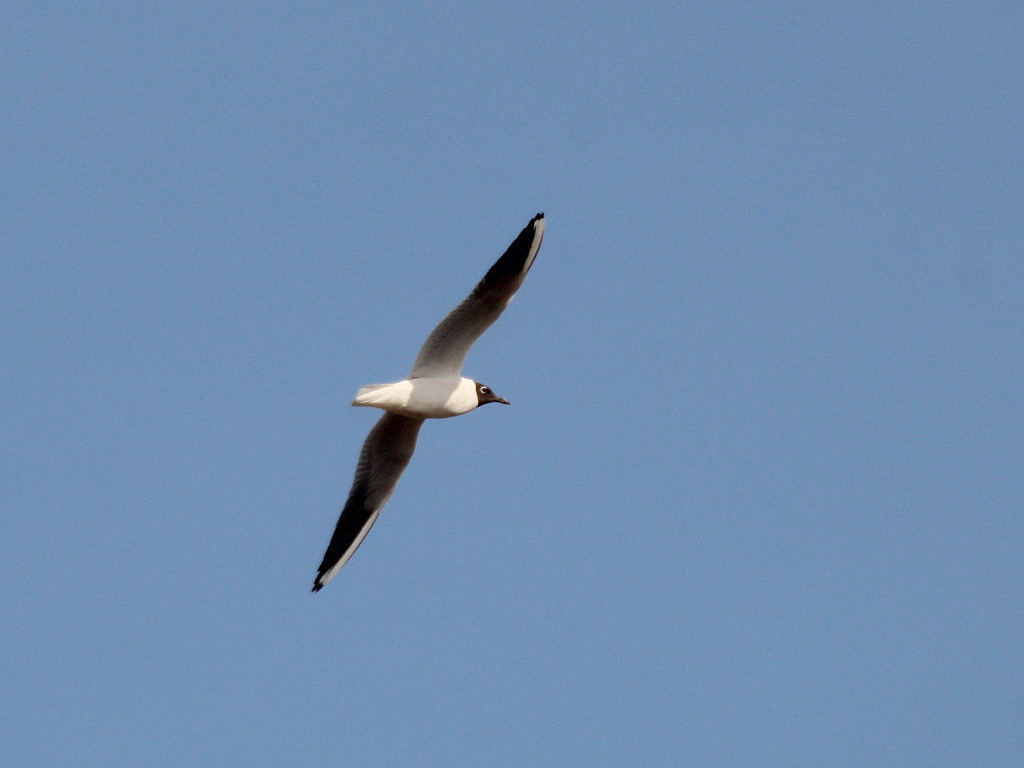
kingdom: Animalia
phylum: Chordata
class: Aves
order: Charadriiformes
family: Laridae
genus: Chroicocephalus
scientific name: Chroicocephalus ridibundus
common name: Black-headed gull
